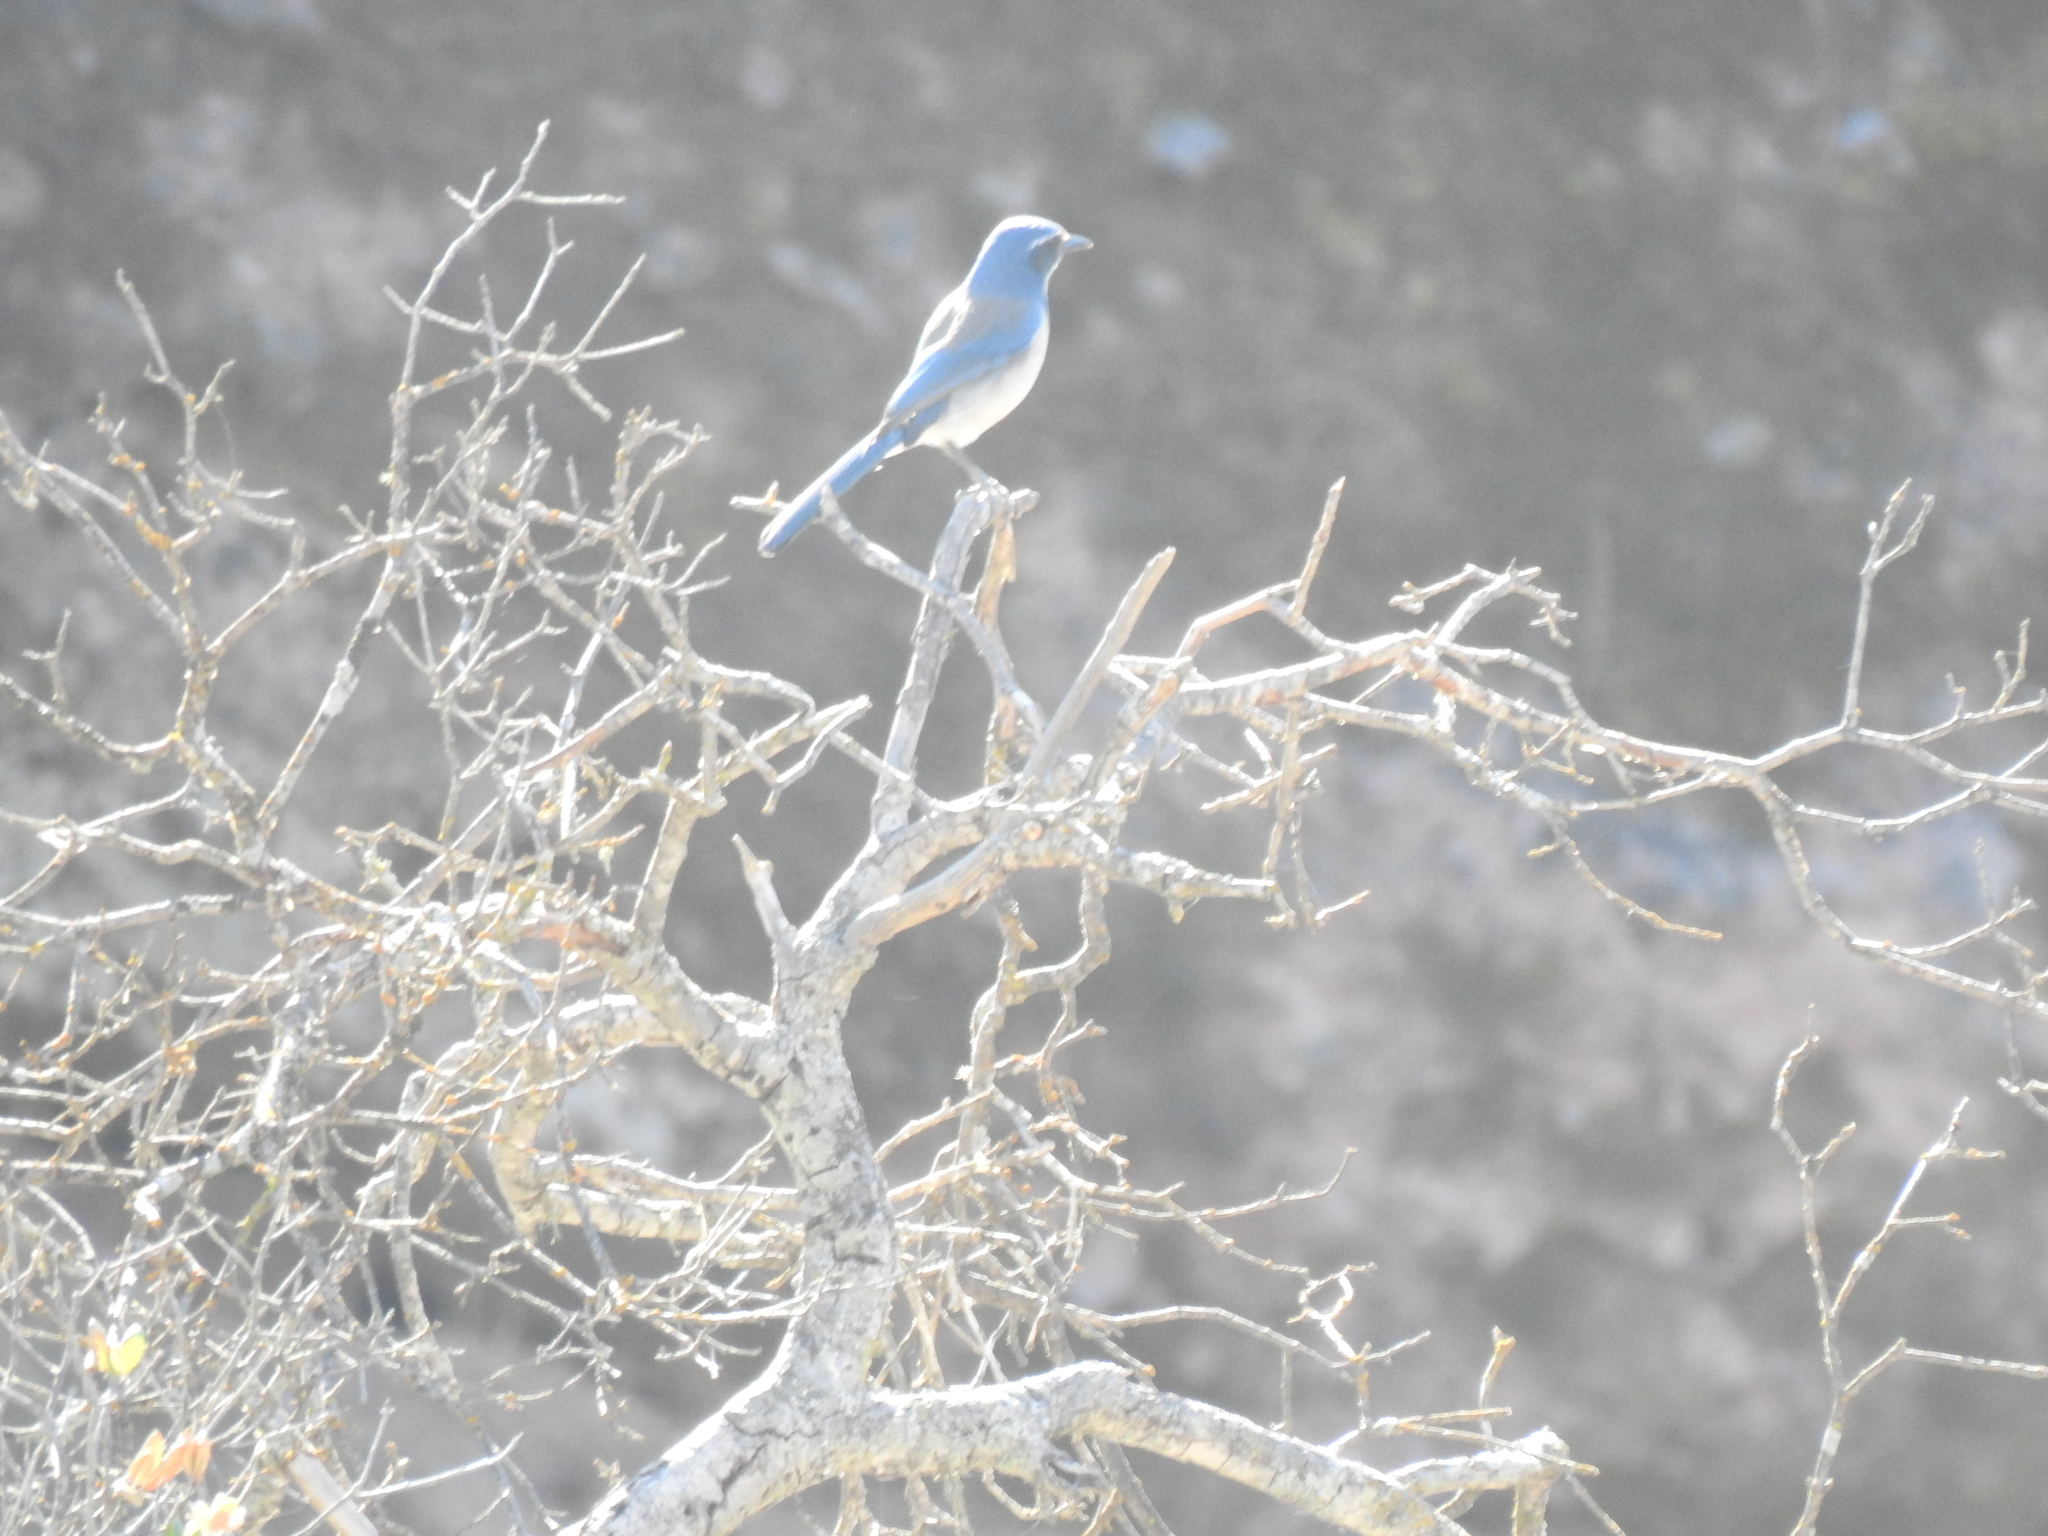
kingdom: Animalia
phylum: Chordata
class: Aves
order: Passeriformes
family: Corvidae
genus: Aphelocoma
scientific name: Aphelocoma californica
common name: California scrub-jay
